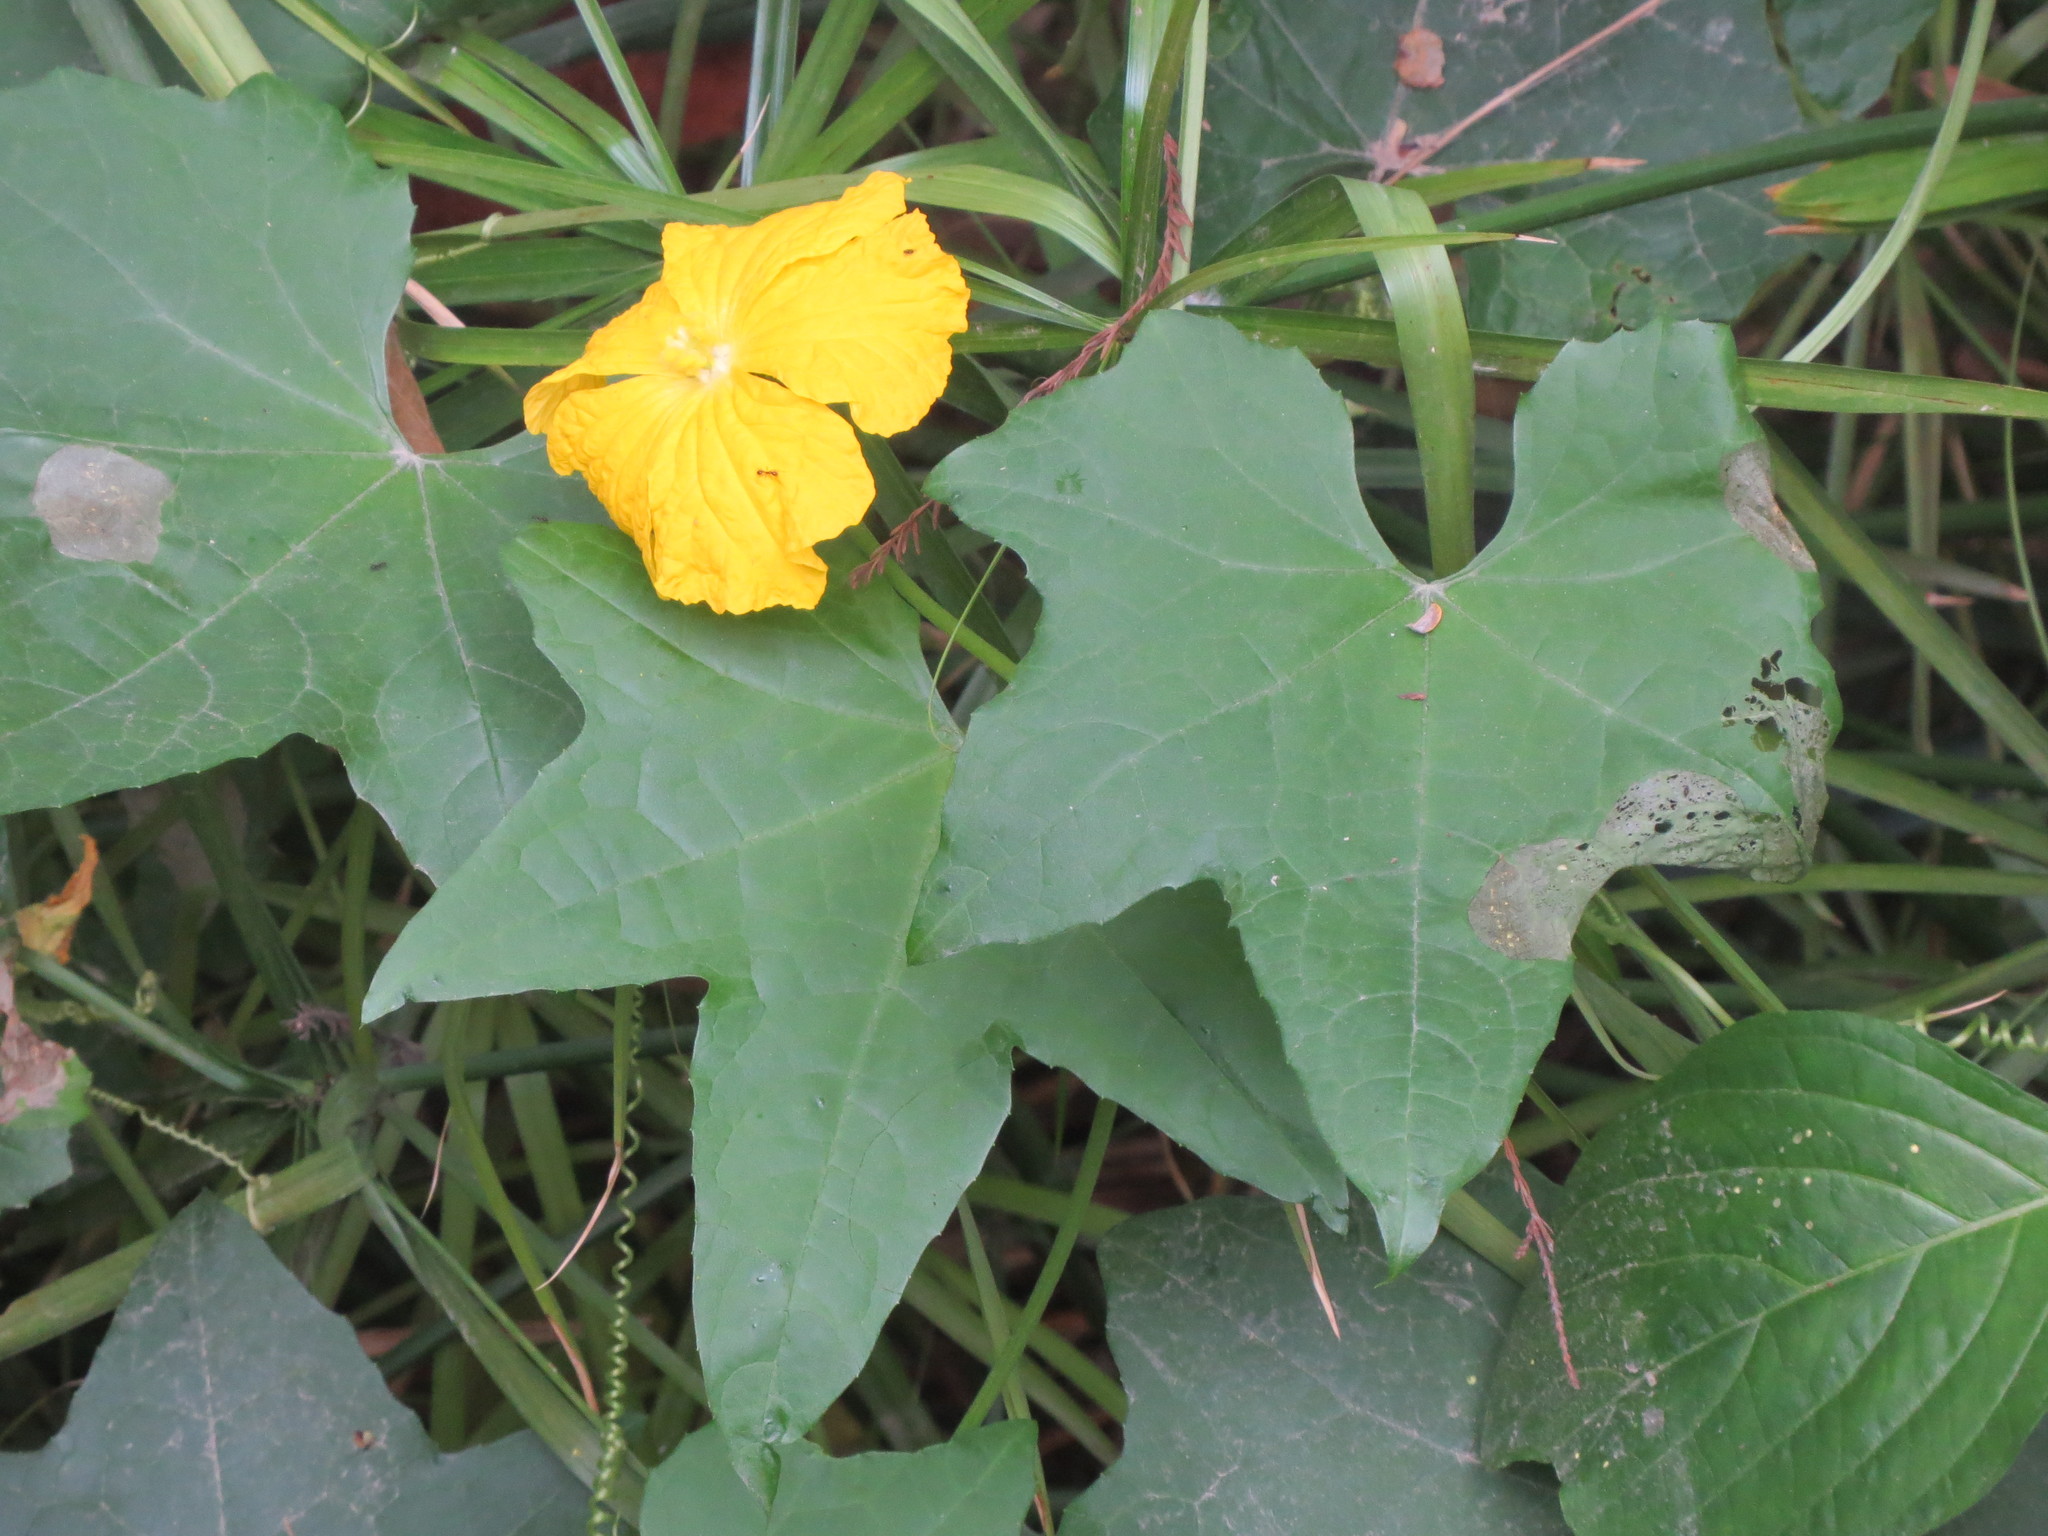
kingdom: Plantae
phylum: Tracheophyta
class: Magnoliopsida
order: Cucurbitales
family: Cucurbitaceae
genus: Luffa
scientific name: Luffa aegyptiaca
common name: Sponge gourd
